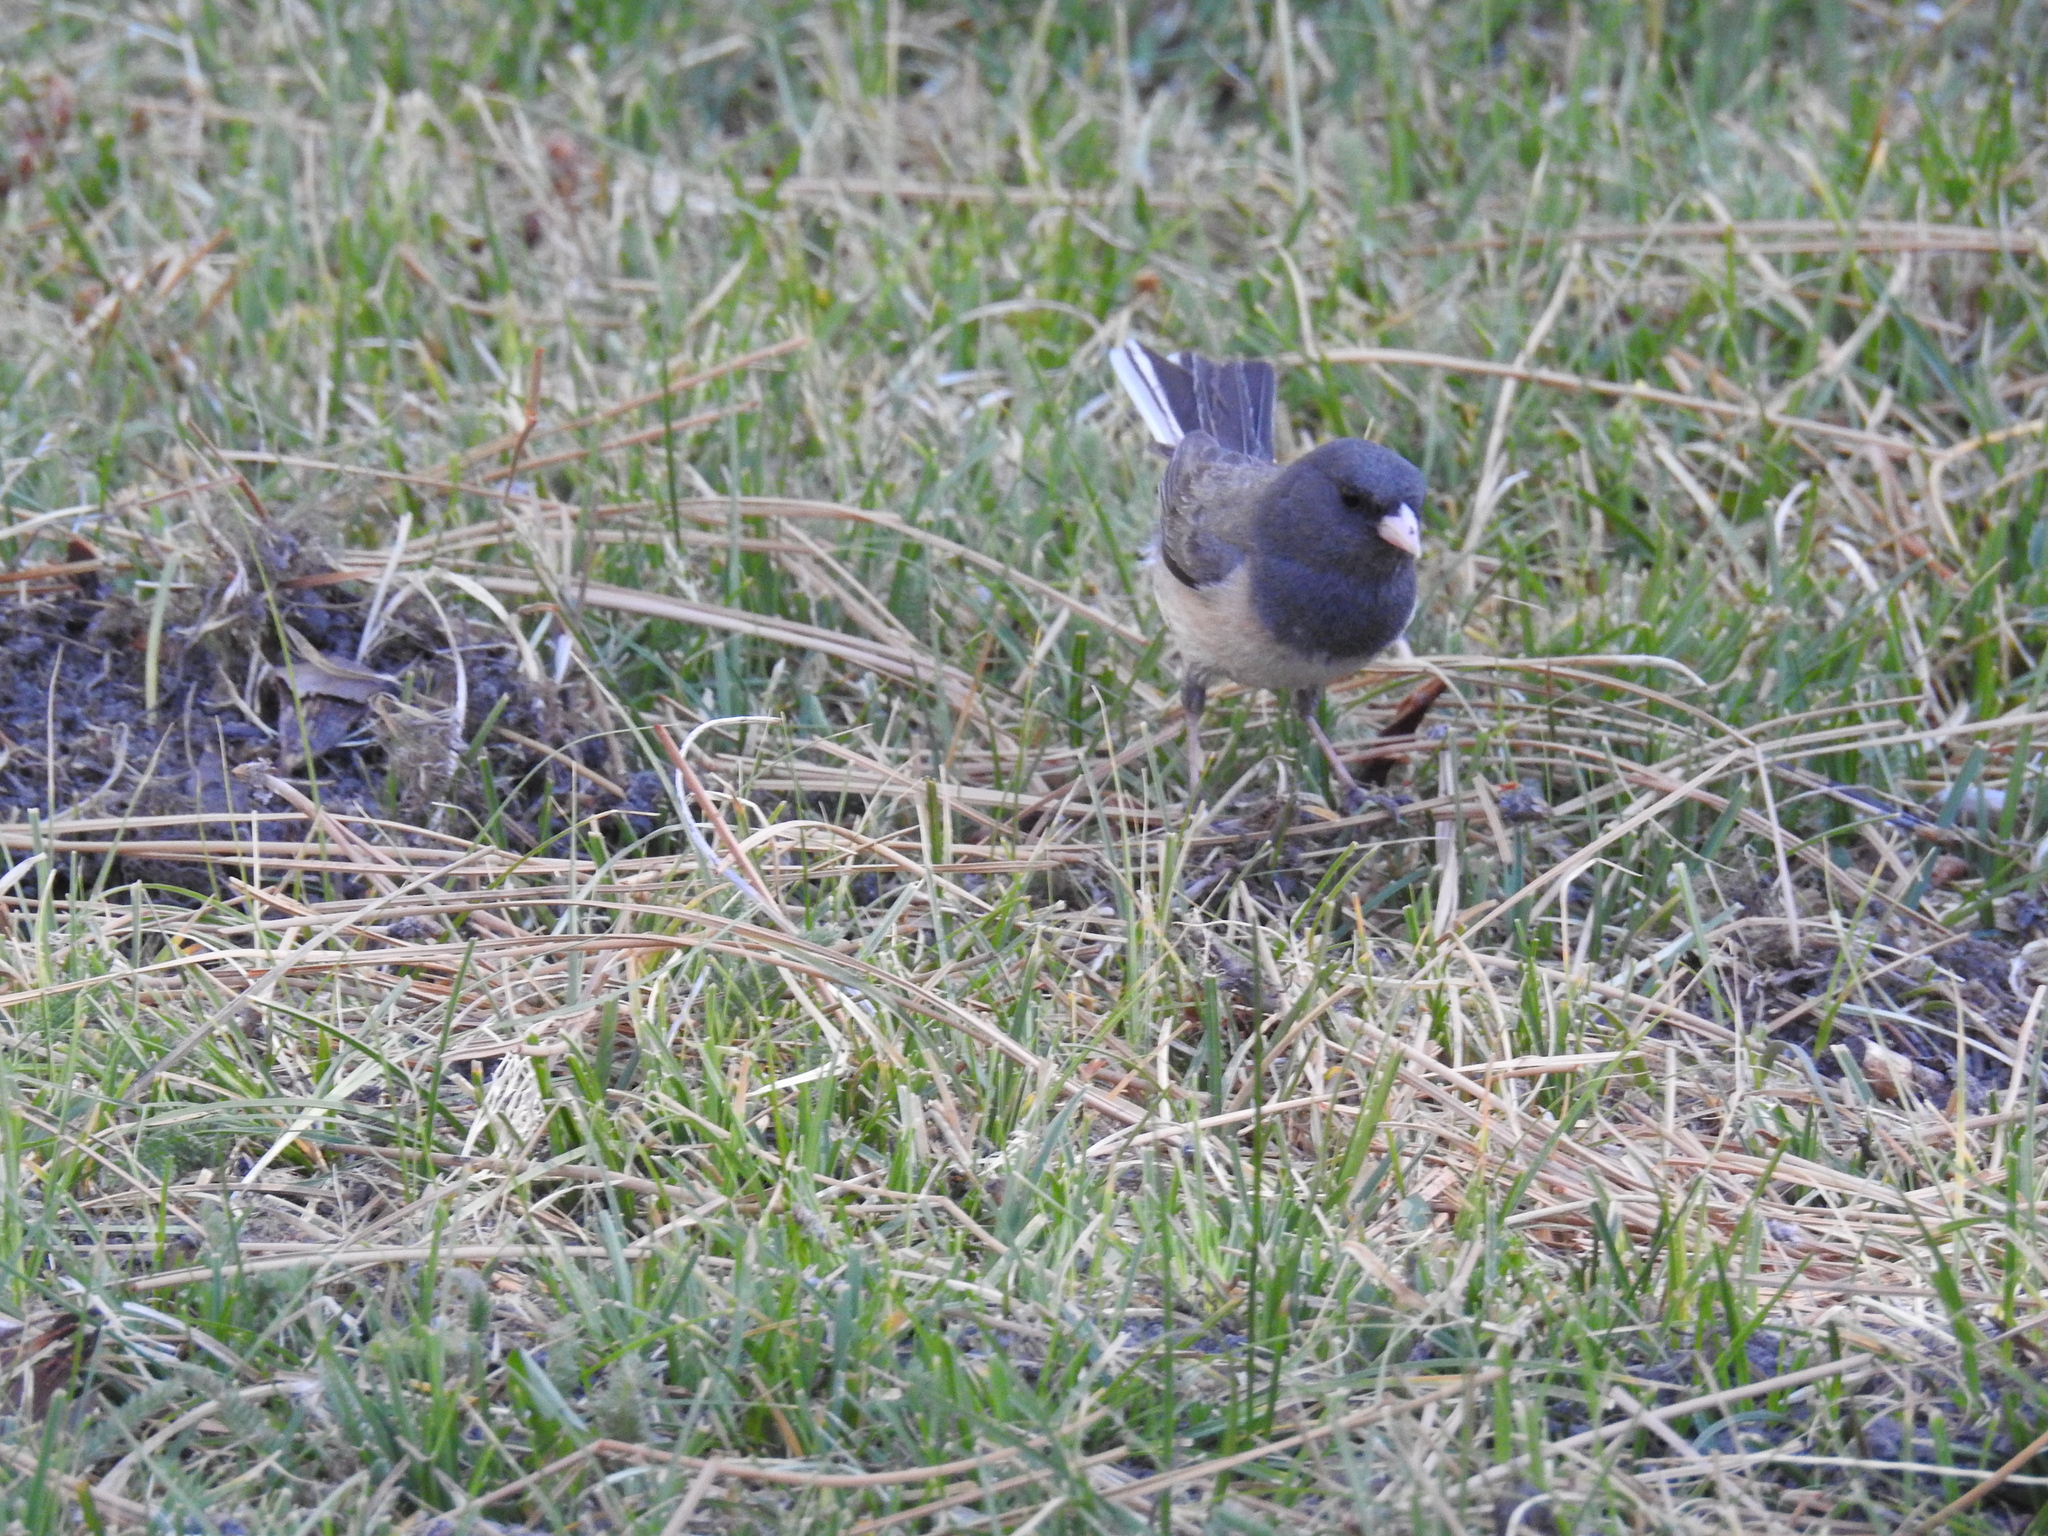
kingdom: Animalia
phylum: Chordata
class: Aves
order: Passeriformes
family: Passerellidae
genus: Junco
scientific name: Junco hyemalis
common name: Dark-eyed junco
